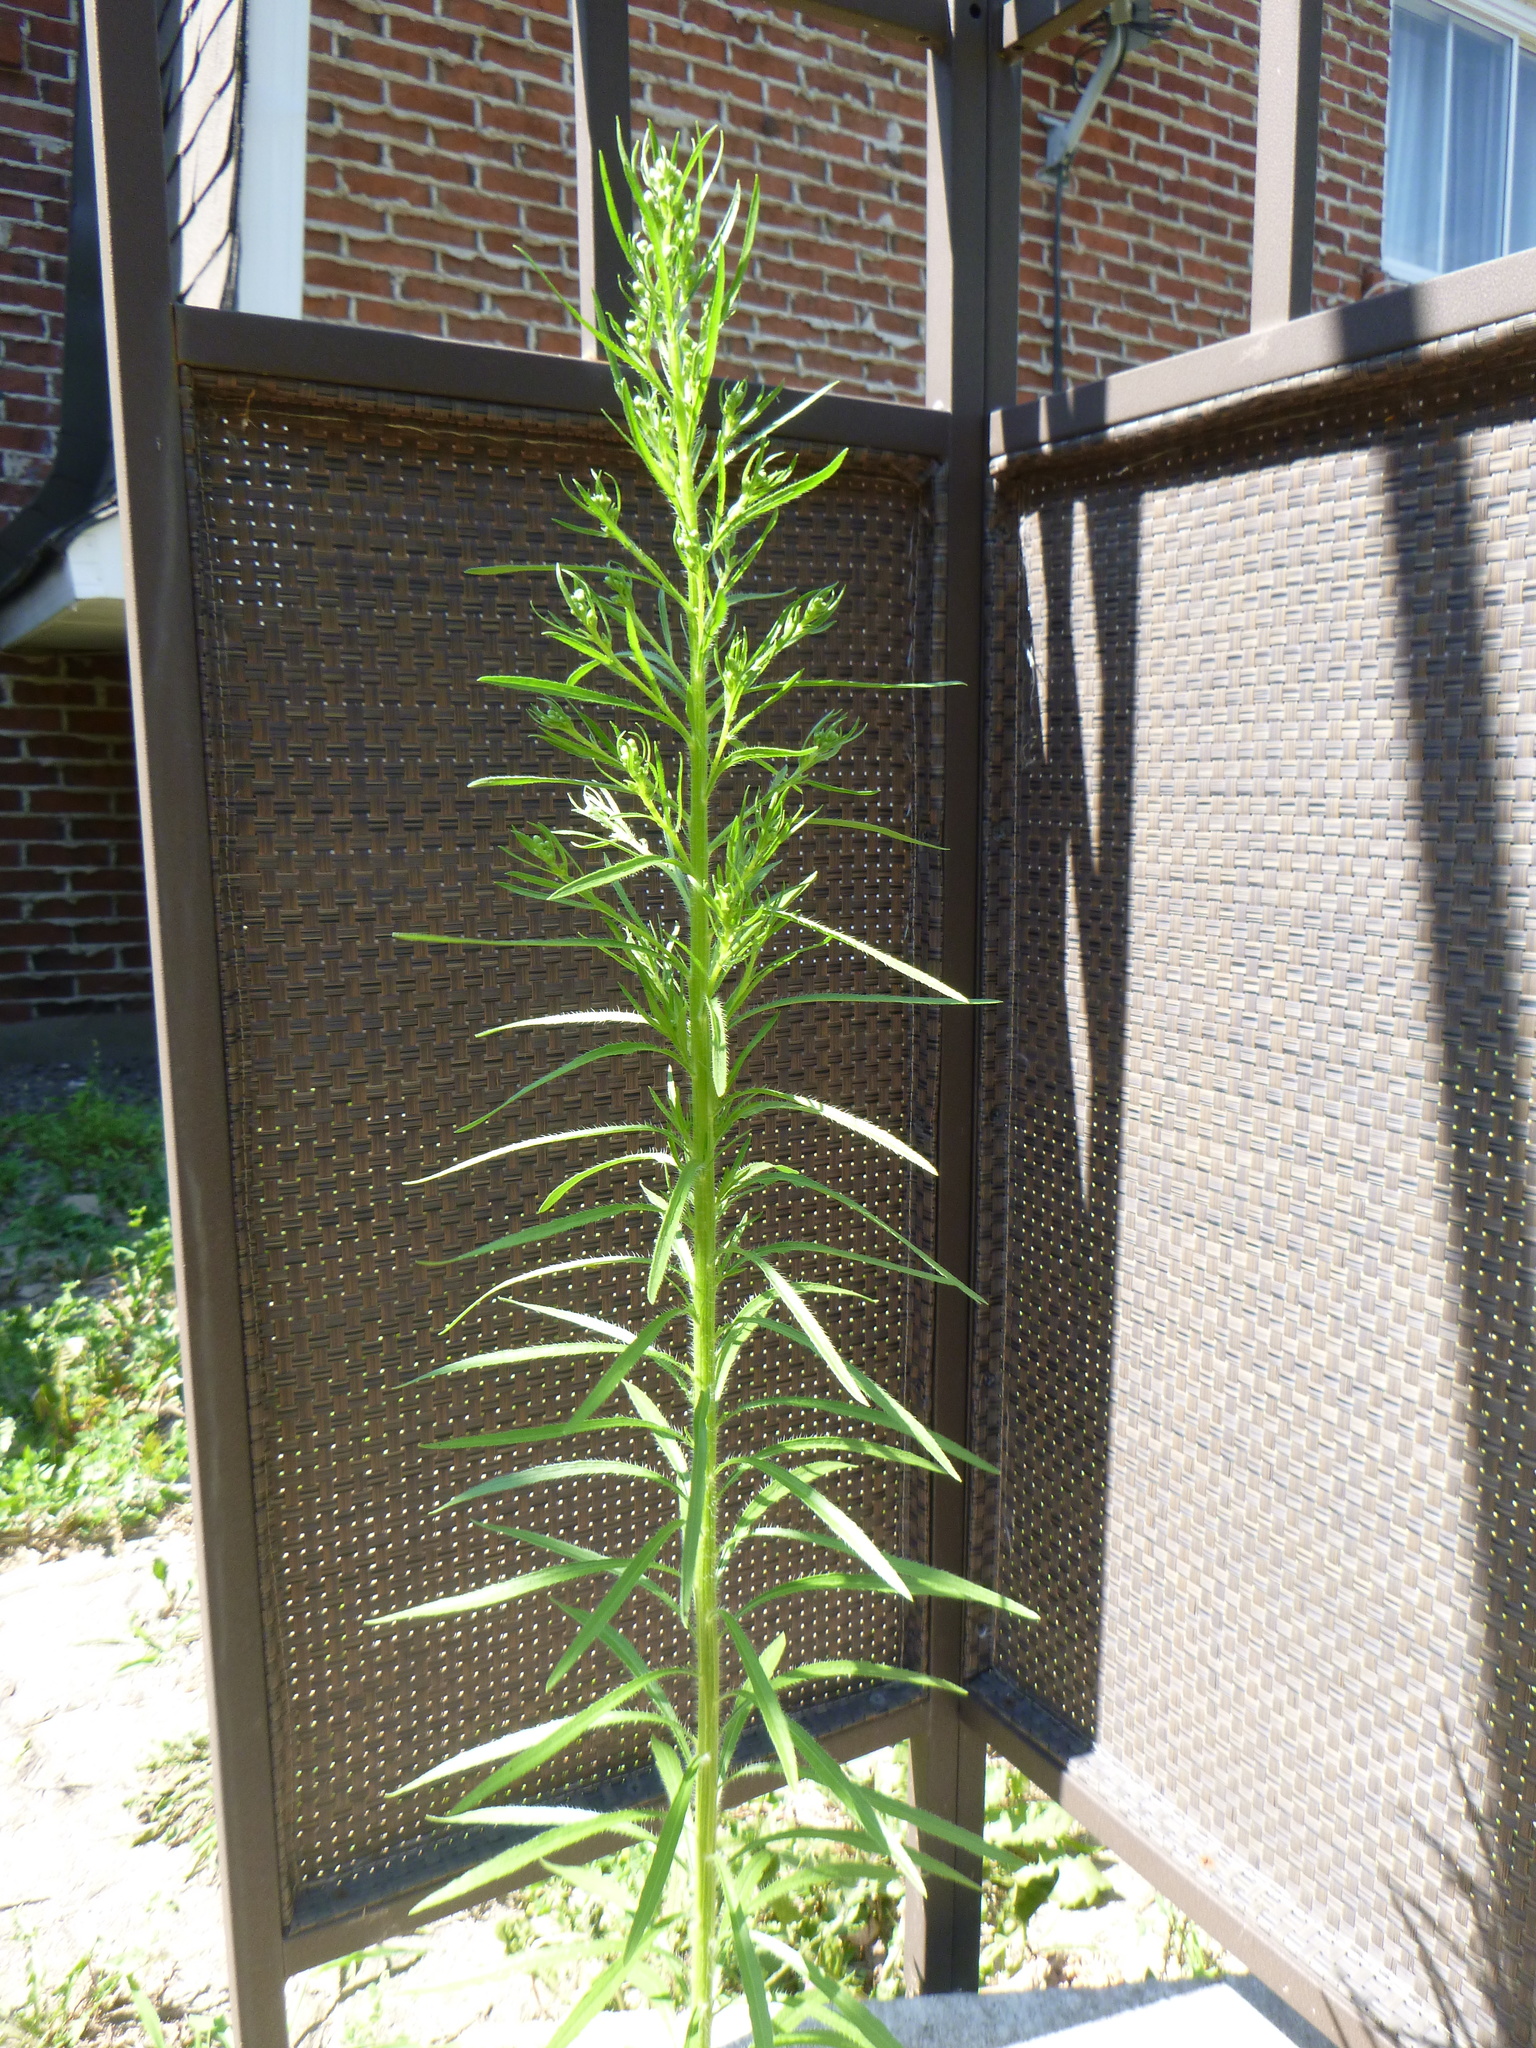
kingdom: Plantae
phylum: Tracheophyta
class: Magnoliopsida
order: Asterales
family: Asteraceae
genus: Erigeron
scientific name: Erigeron canadensis
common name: Canadian fleabane
